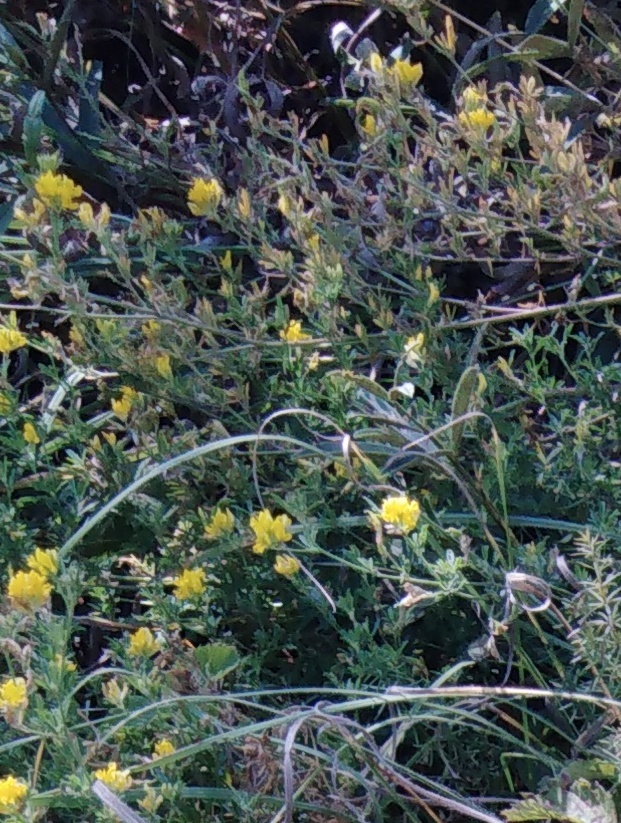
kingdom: Plantae
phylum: Tracheophyta
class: Magnoliopsida
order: Fabales
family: Fabaceae
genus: Medicago
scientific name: Medicago falcata
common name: Sickle medick
